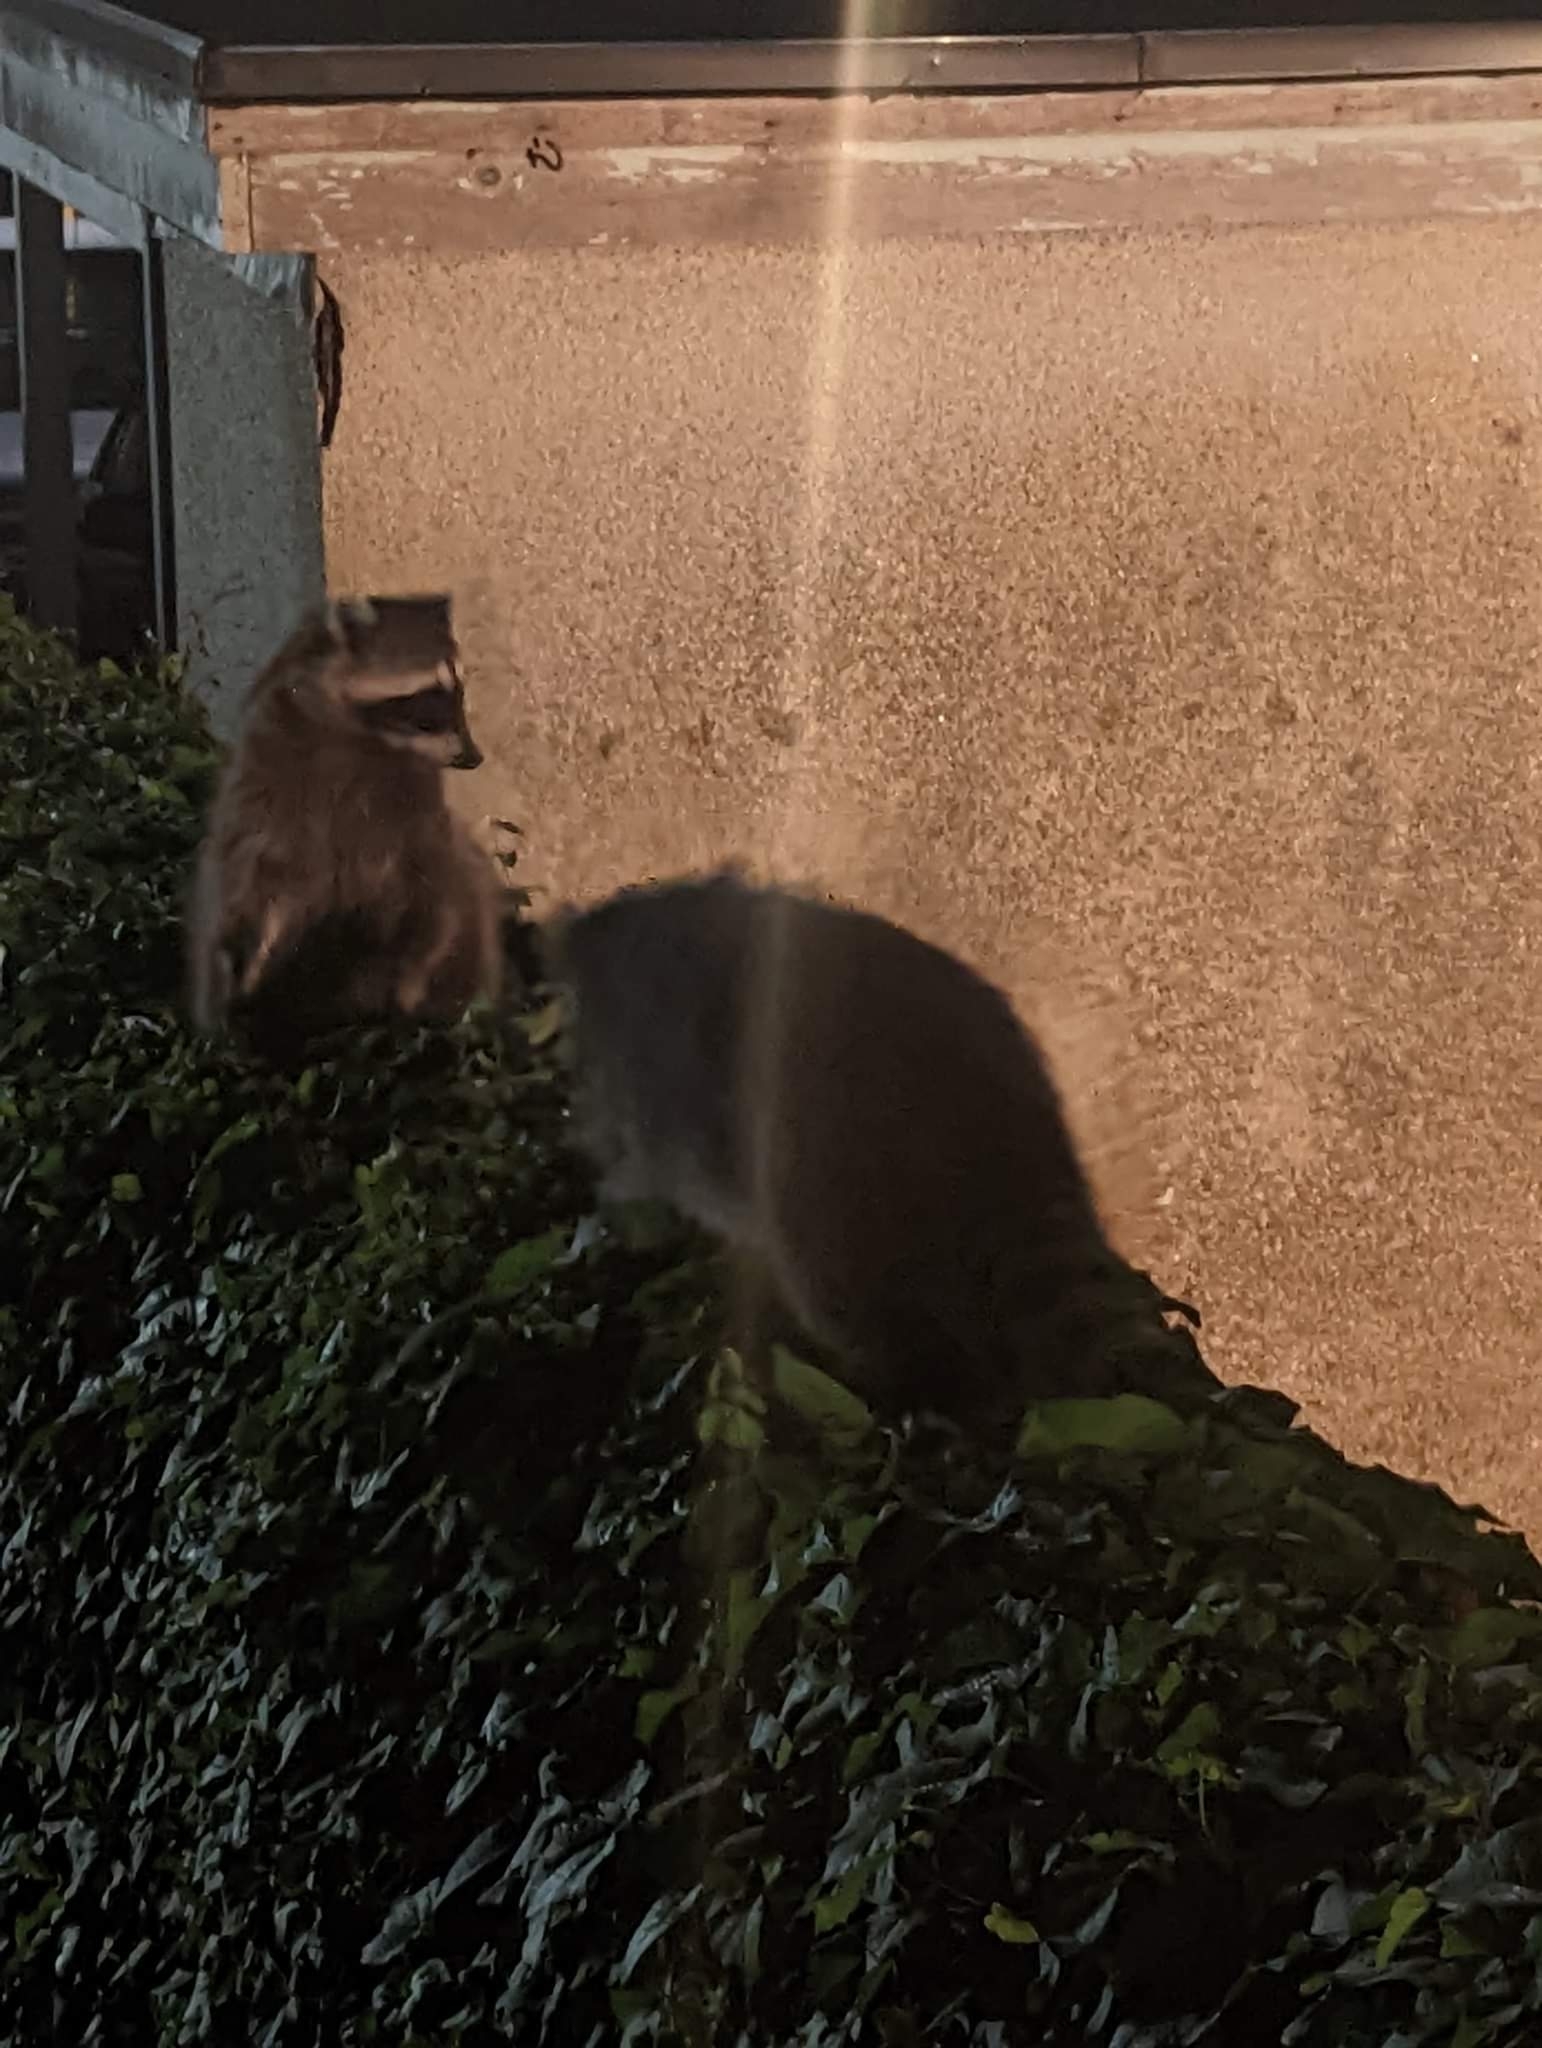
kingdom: Animalia
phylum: Chordata
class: Mammalia
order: Carnivora
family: Procyonidae
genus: Procyon
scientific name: Procyon lotor
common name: Raccoon
